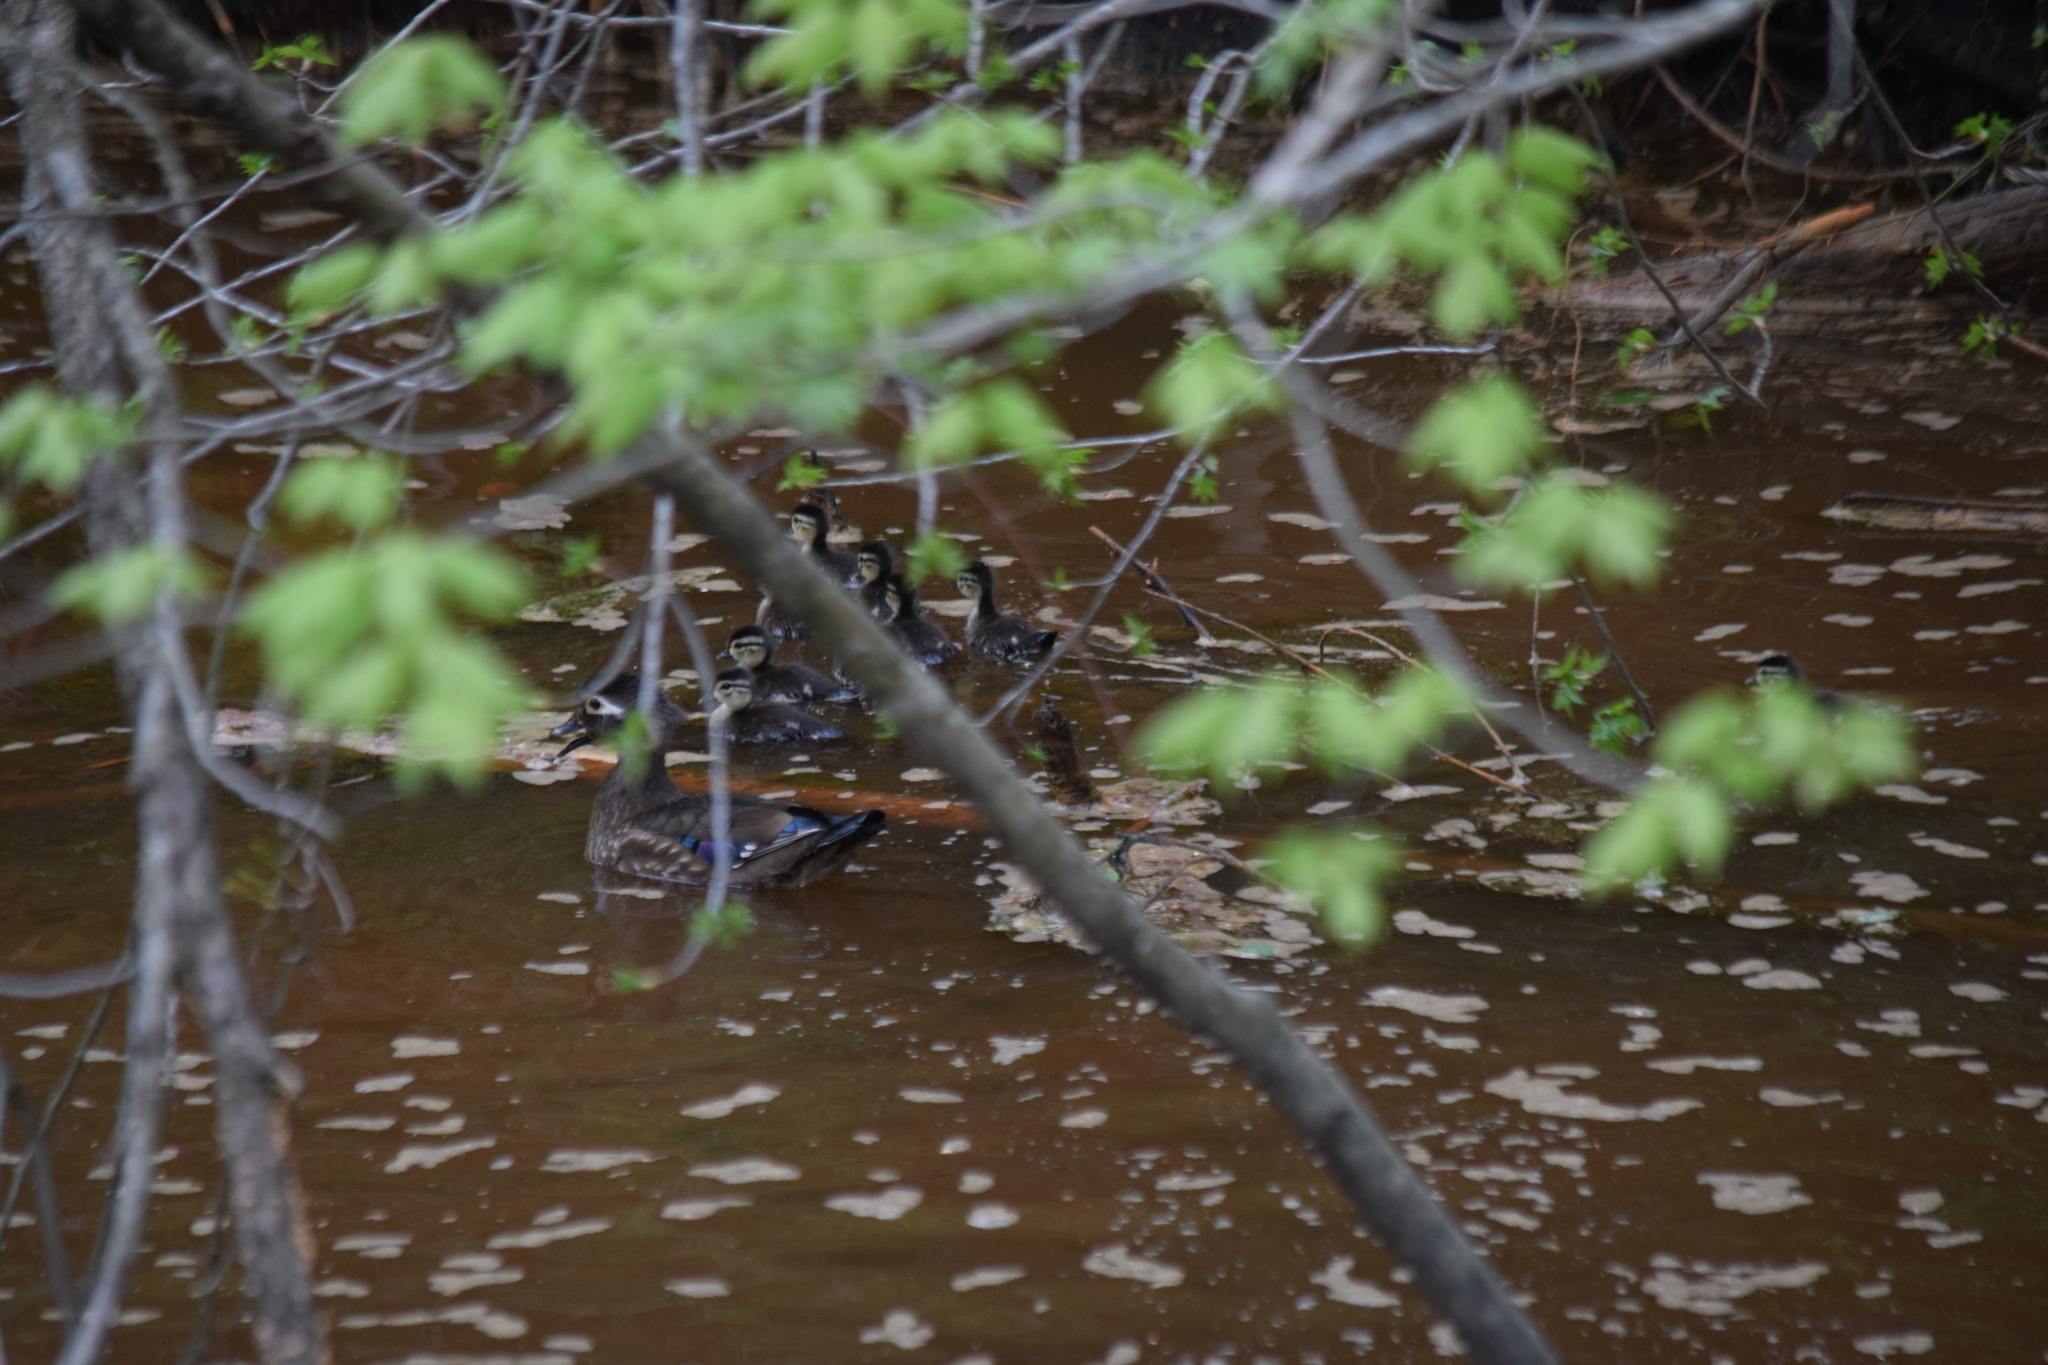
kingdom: Animalia
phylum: Chordata
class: Aves
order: Anseriformes
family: Anatidae
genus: Aix
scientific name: Aix sponsa
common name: Wood duck
